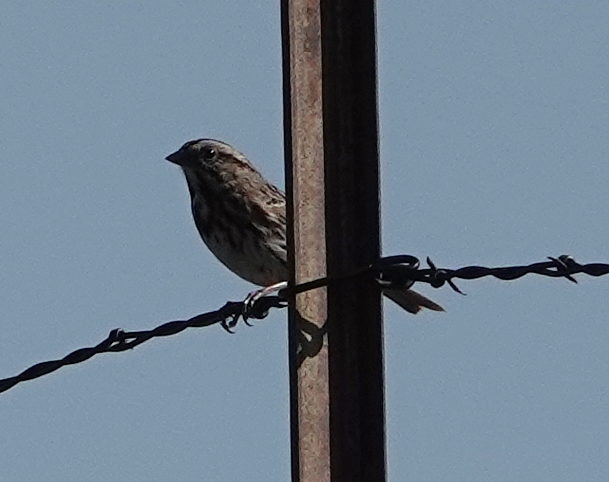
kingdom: Animalia
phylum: Chordata
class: Aves
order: Passeriformes
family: Passerellidae
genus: Melospiza
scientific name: Melospiza melodia
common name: Song sparrow
